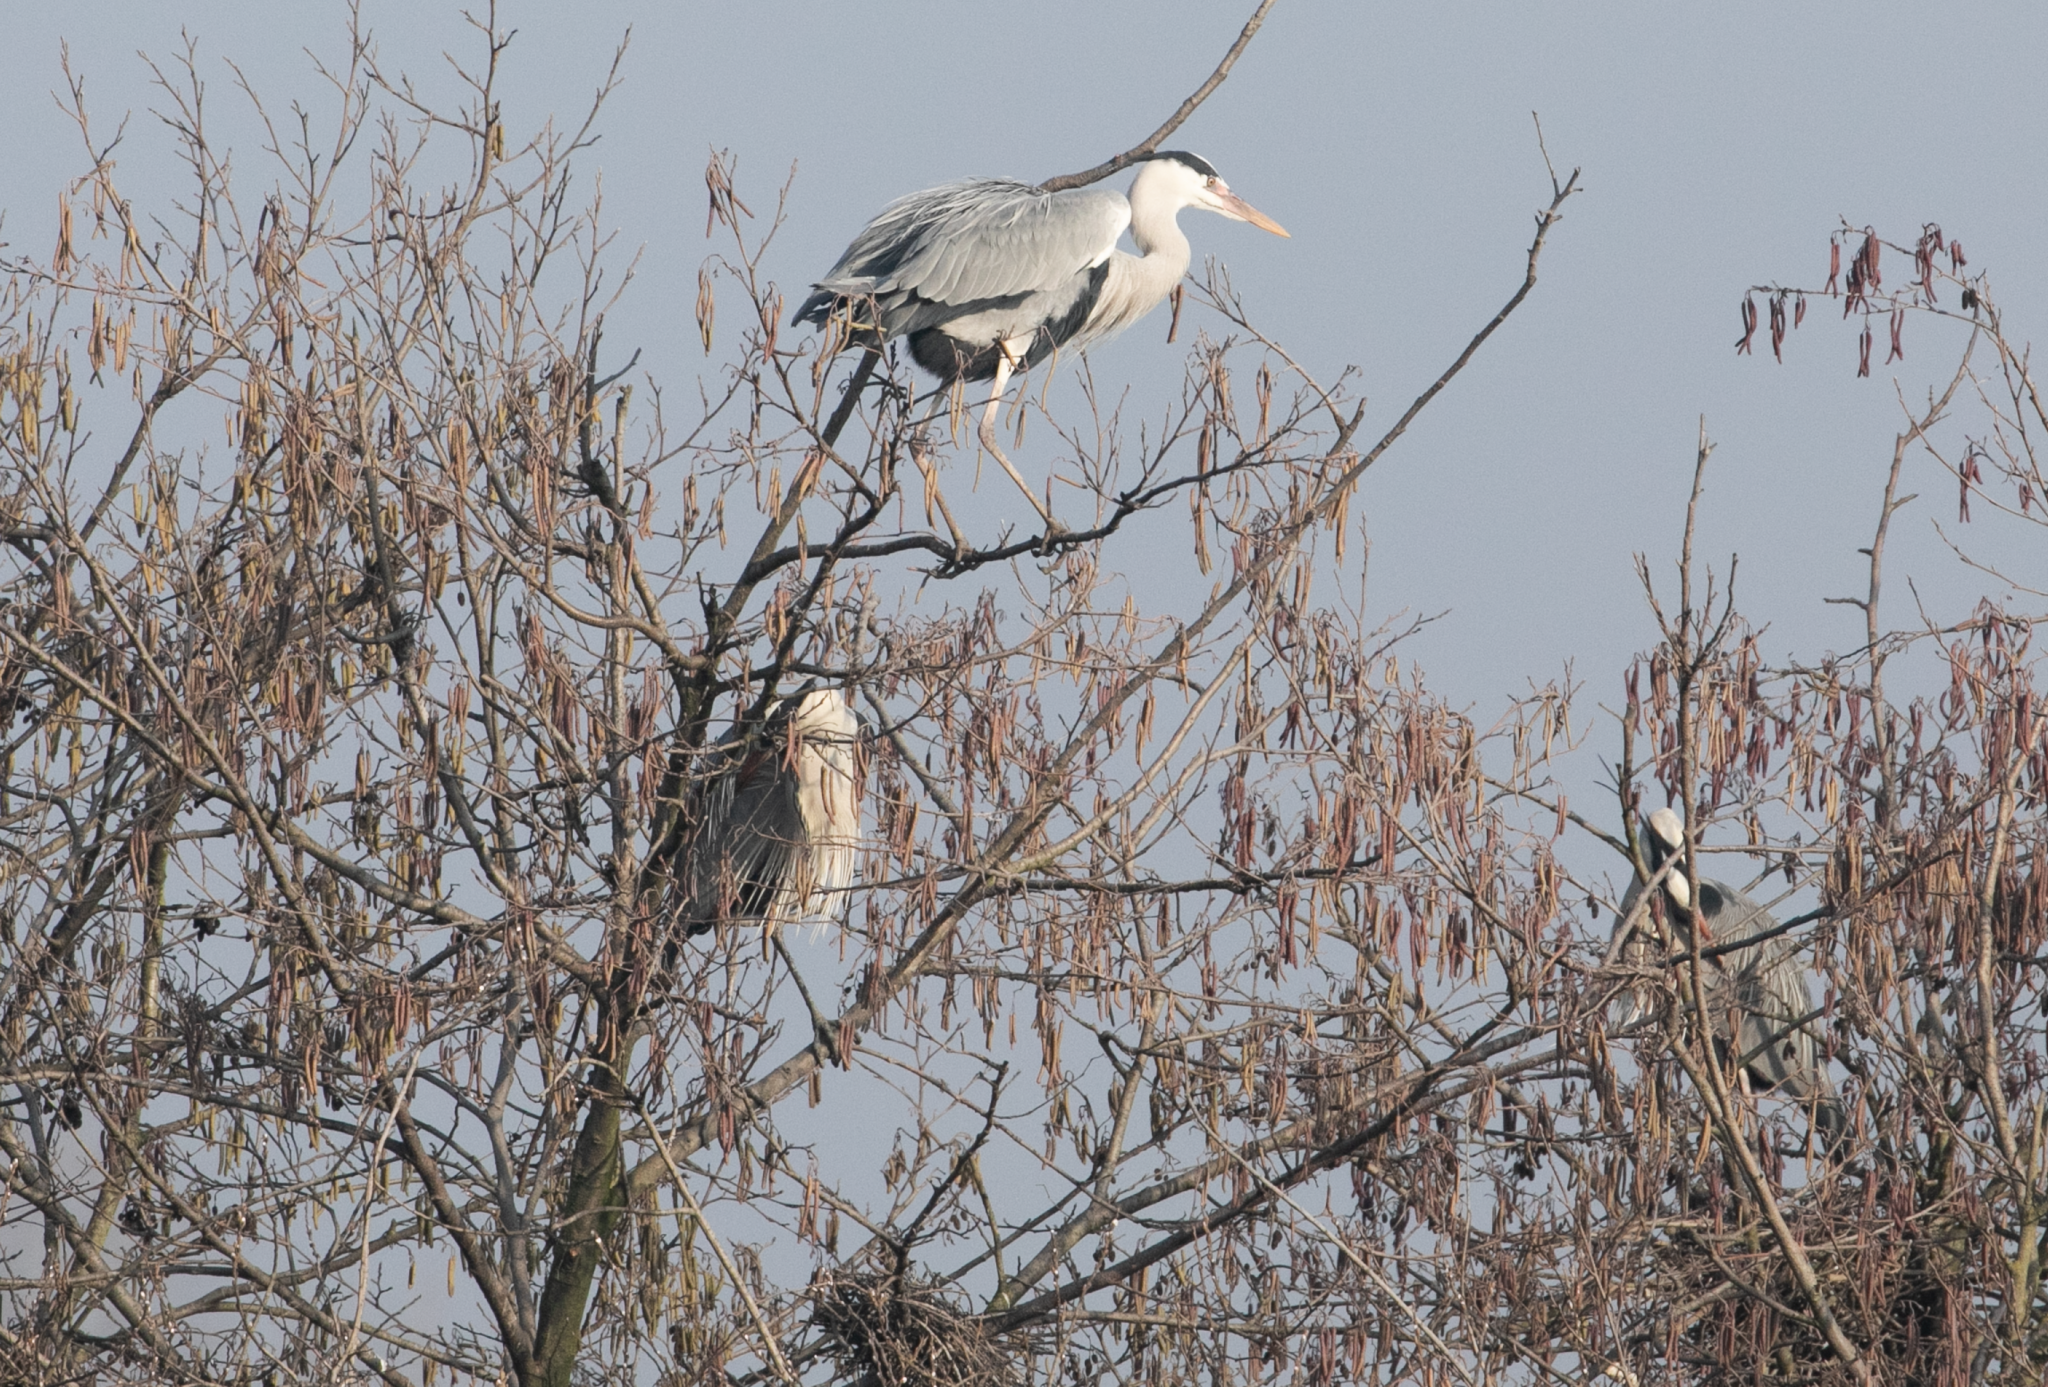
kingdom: Animalia
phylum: Chordata
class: Aves
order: Pelecaniformes
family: Ardeidae
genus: Ardea
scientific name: Ardea cinerea
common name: Grey heron
